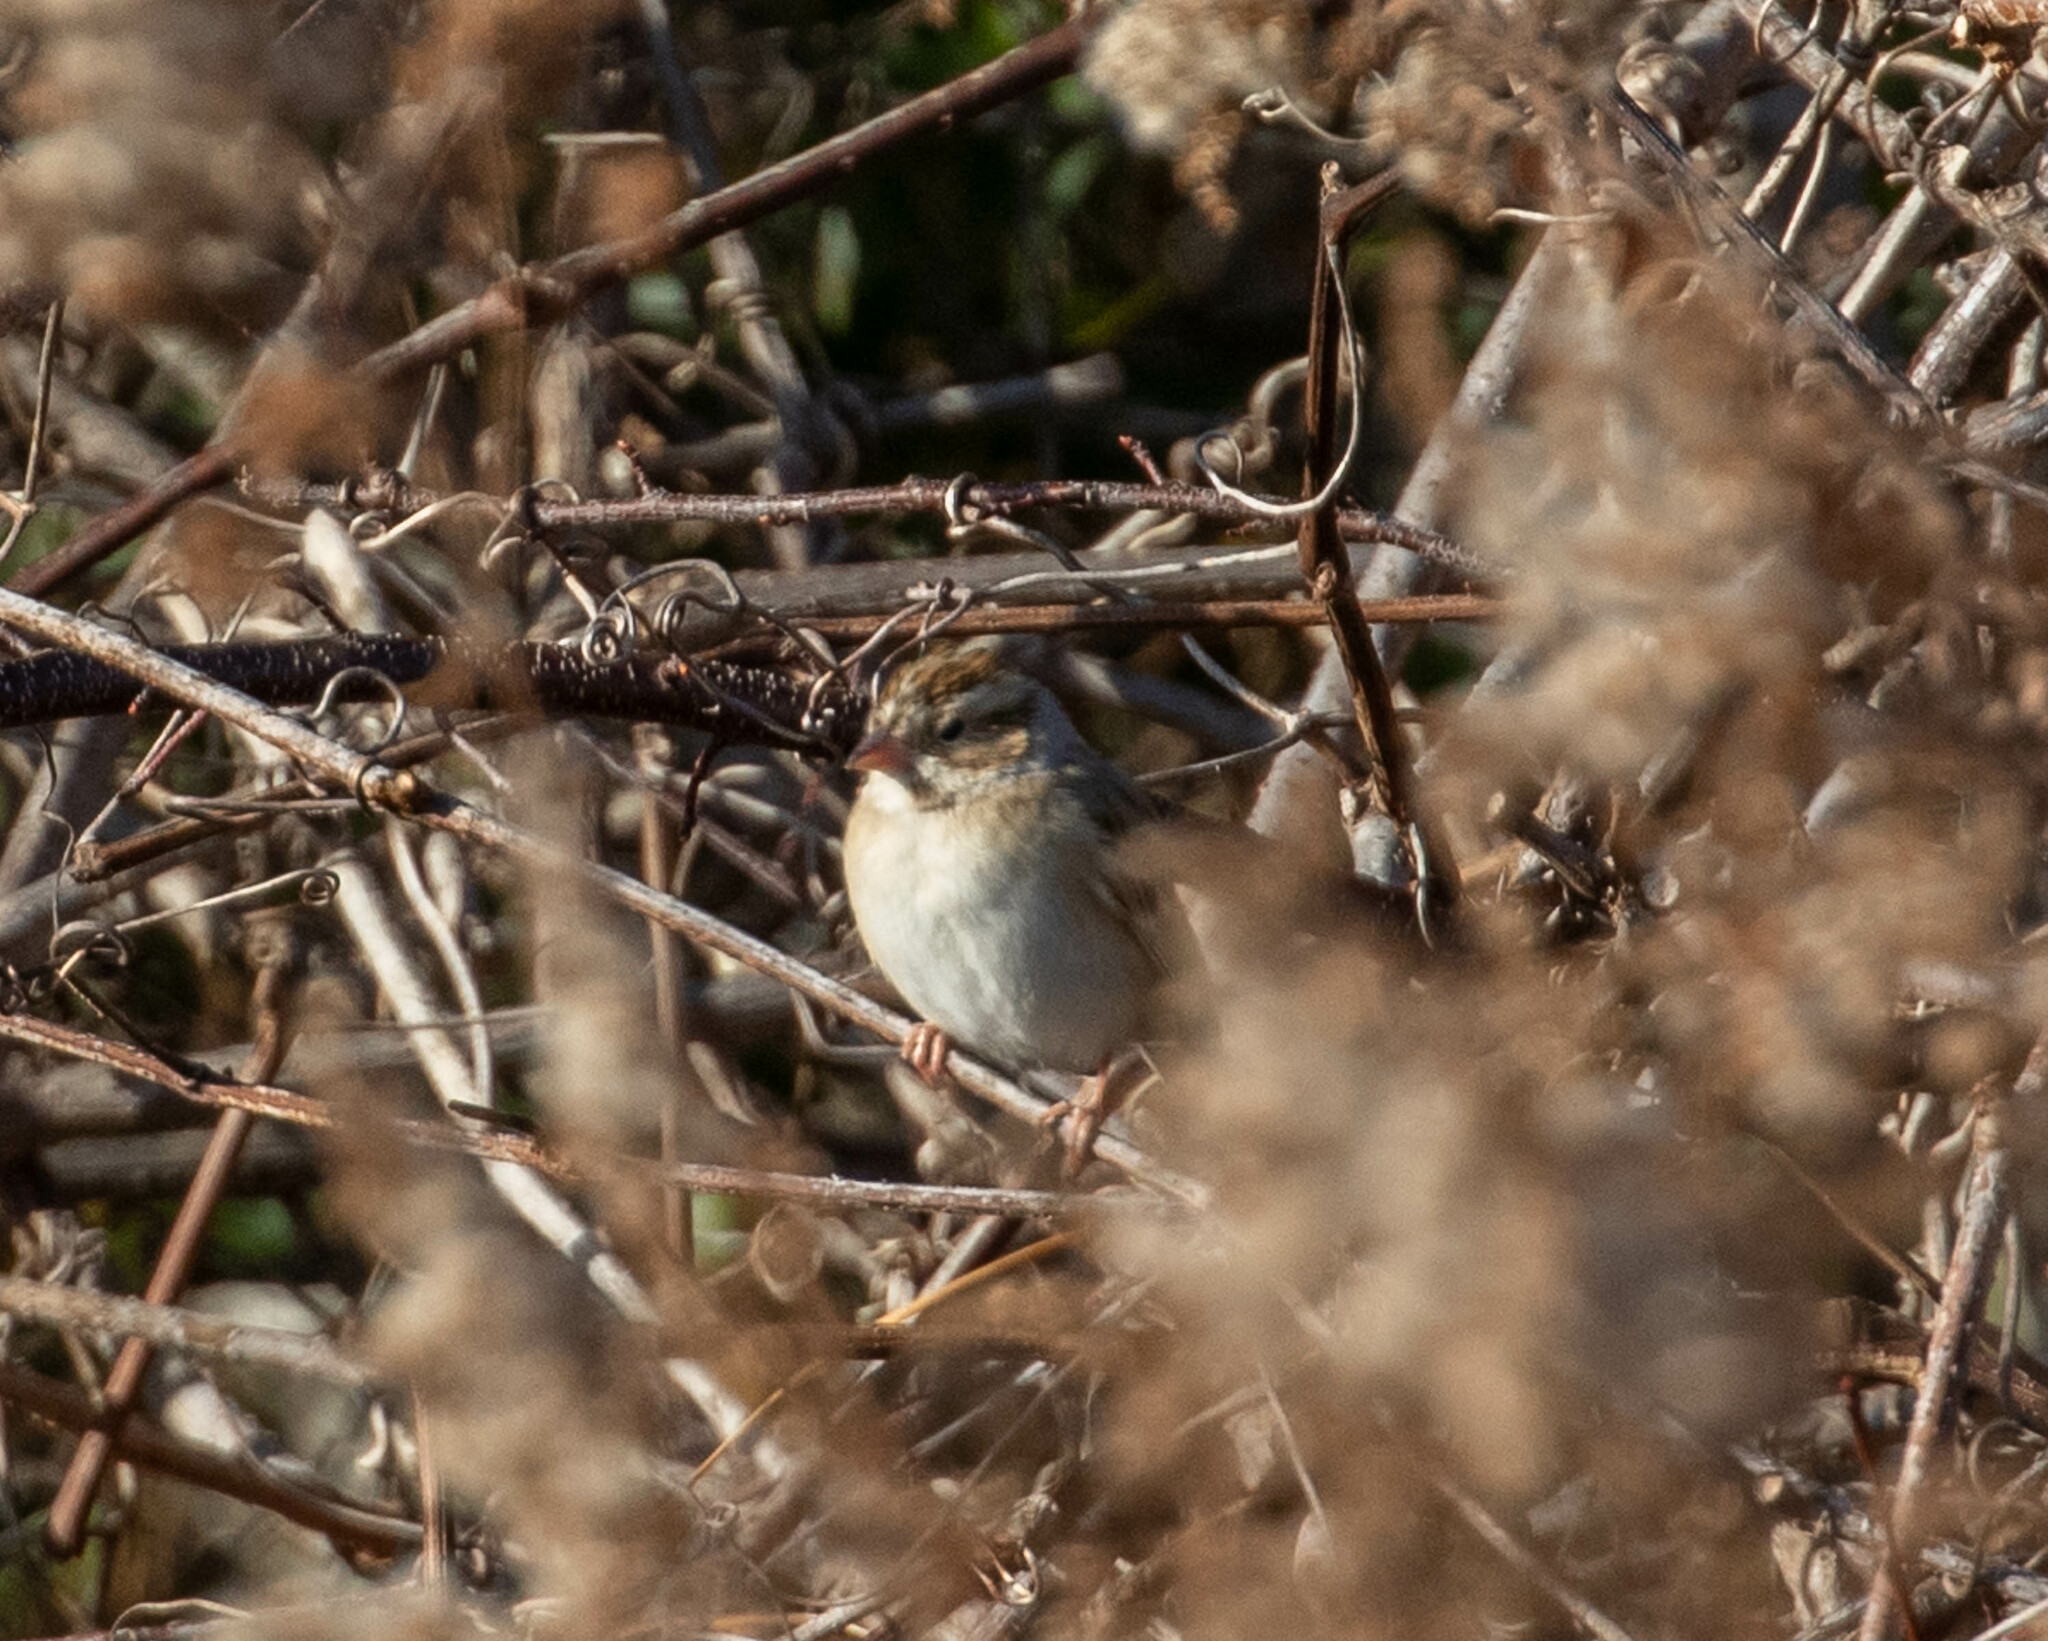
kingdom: Animalia
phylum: Chordata
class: Aves
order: Passeriformes
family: Passerellidae
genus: Spizella
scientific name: Spizella pallida
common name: Clay-colored sparrow
